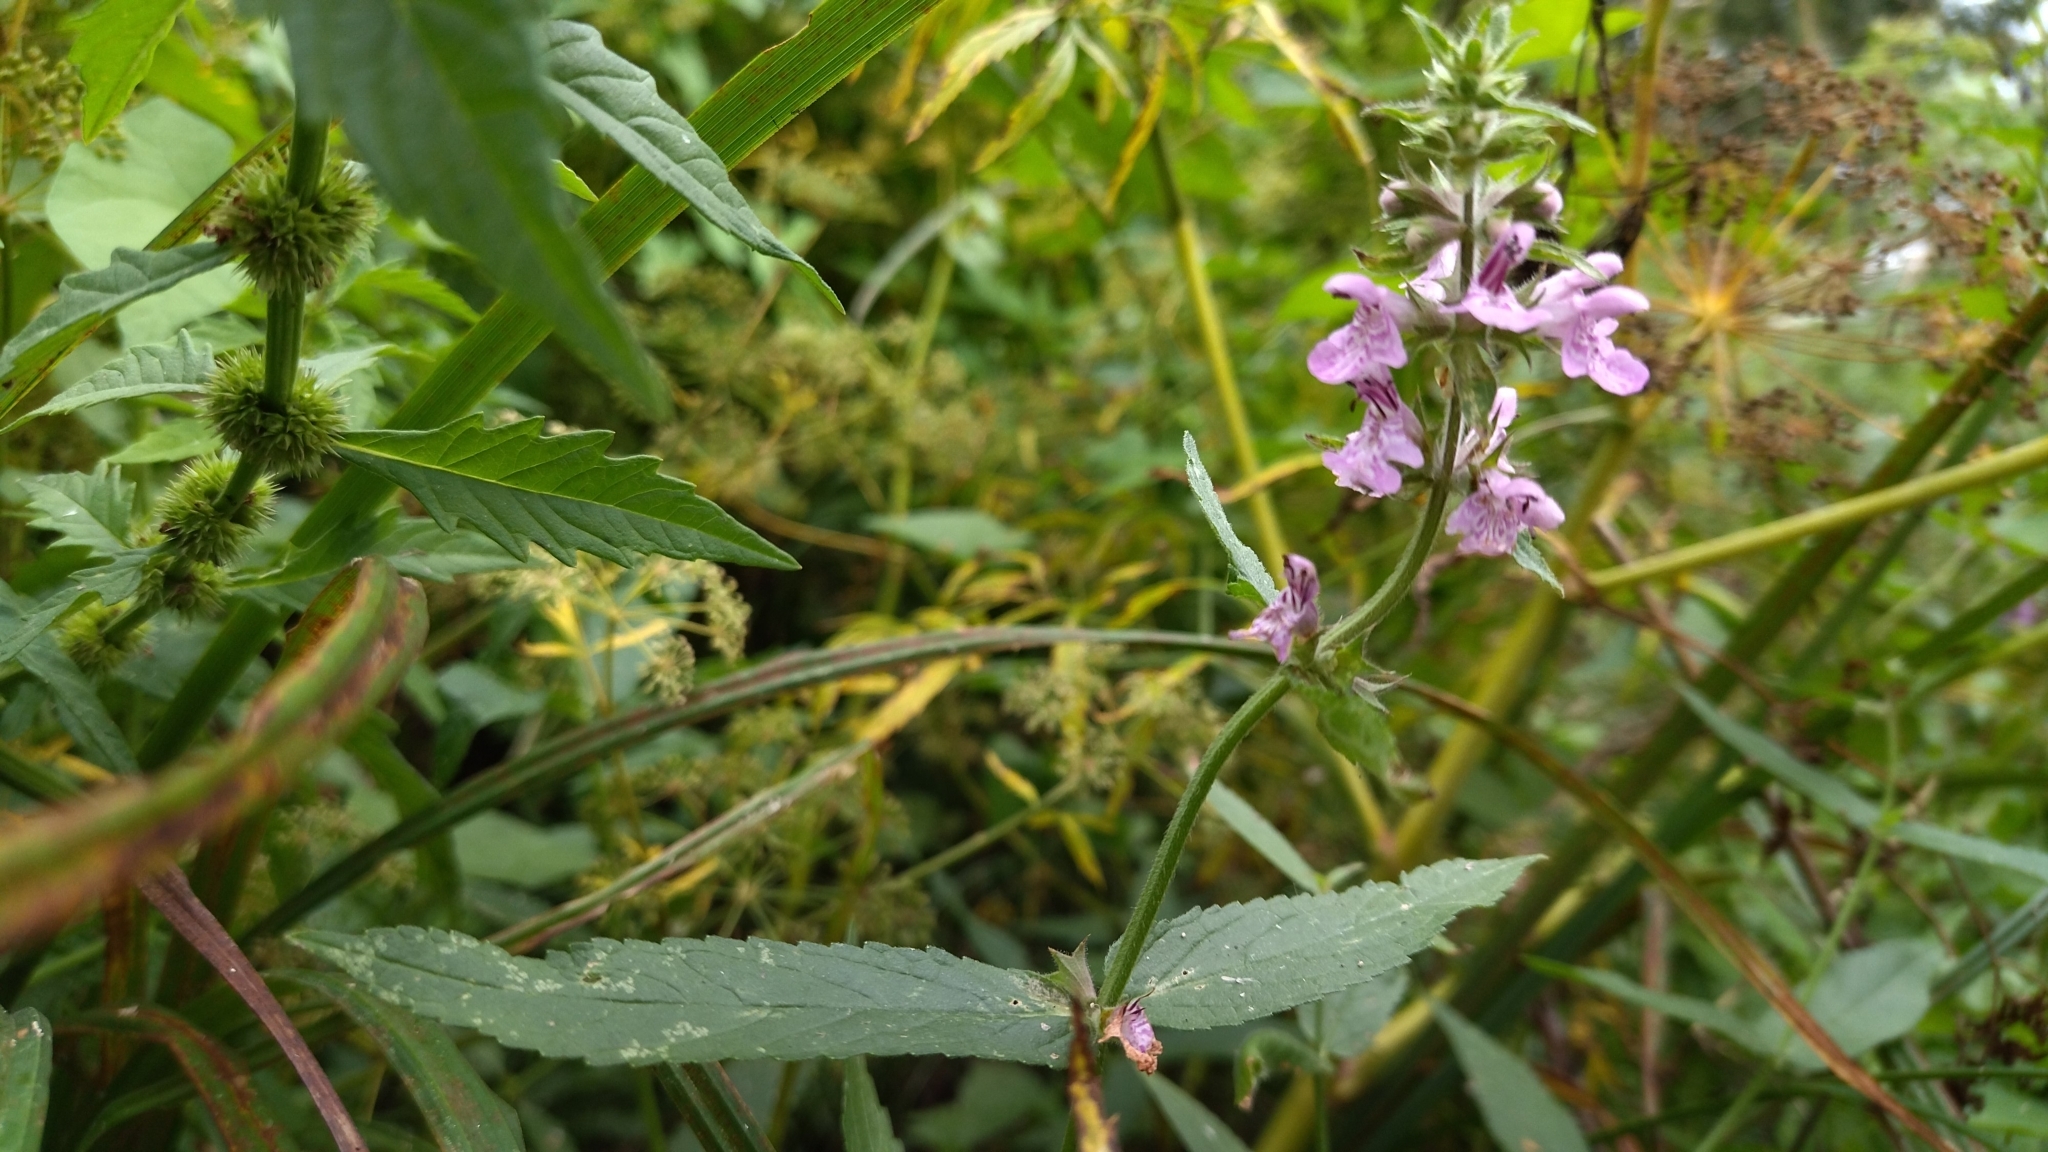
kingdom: Plantae
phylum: Tracheophyta
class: Magnoliopsida
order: Lamiales
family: Lamiaceae
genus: Stachys
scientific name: Stachys palustris
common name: Marsh woundwort
